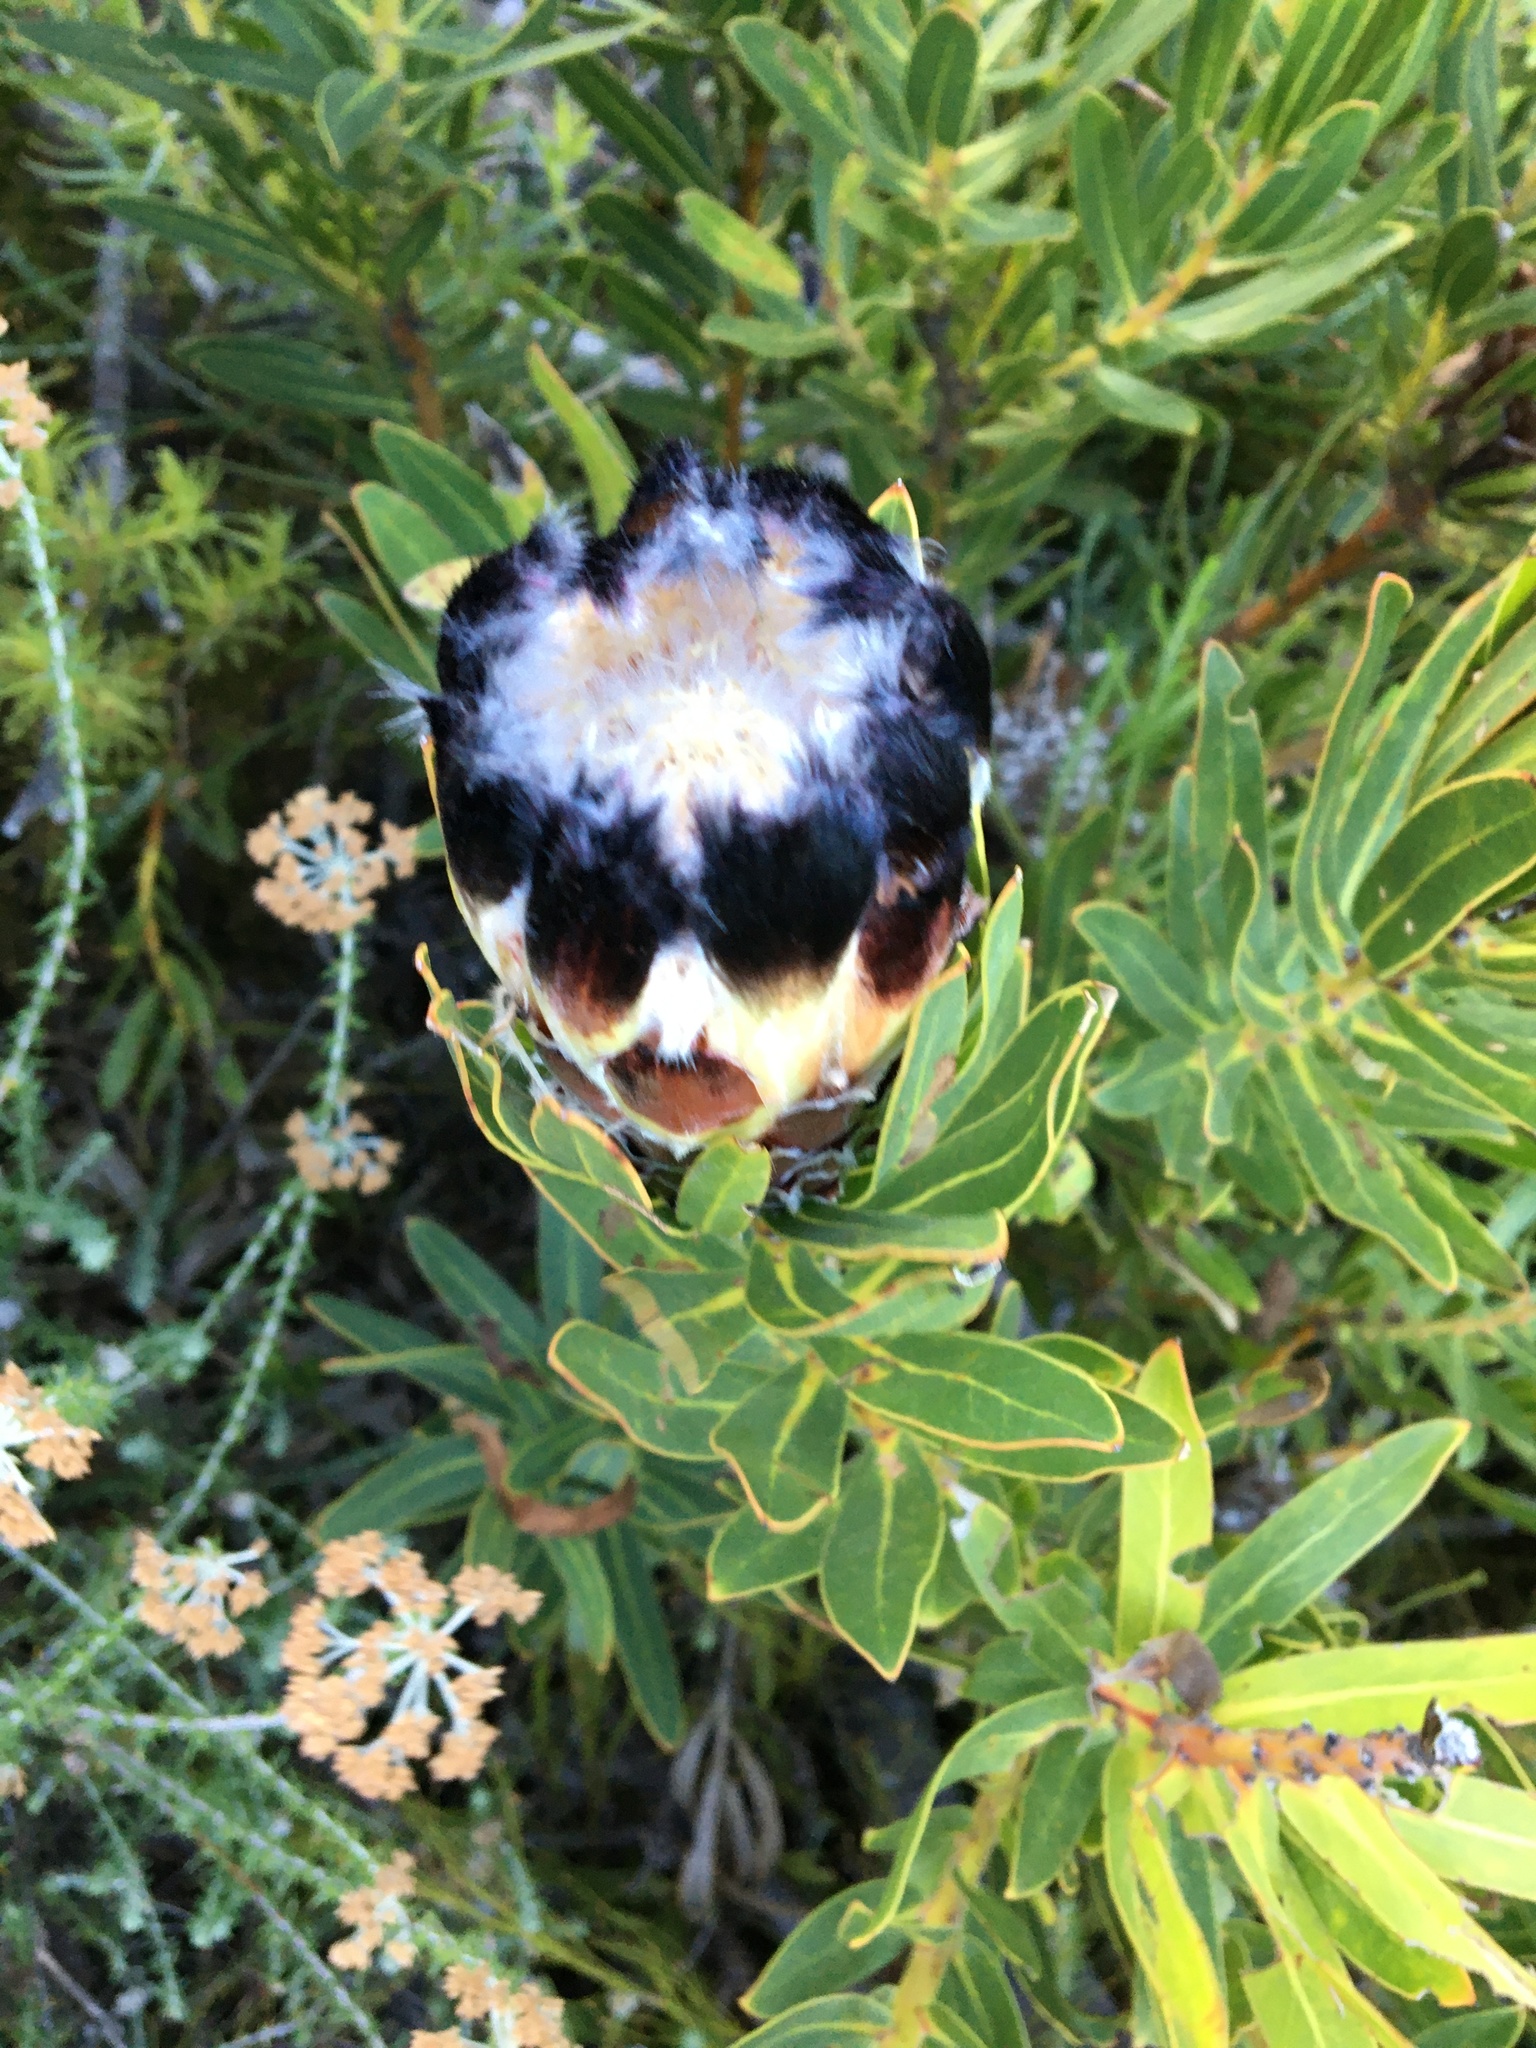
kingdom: Plantae
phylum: Tracheophyta
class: Magnoliopsida
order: Proteales
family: Proteaceae
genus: Protea
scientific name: Protea lepidocarpodendron
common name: Black-bearded protea
